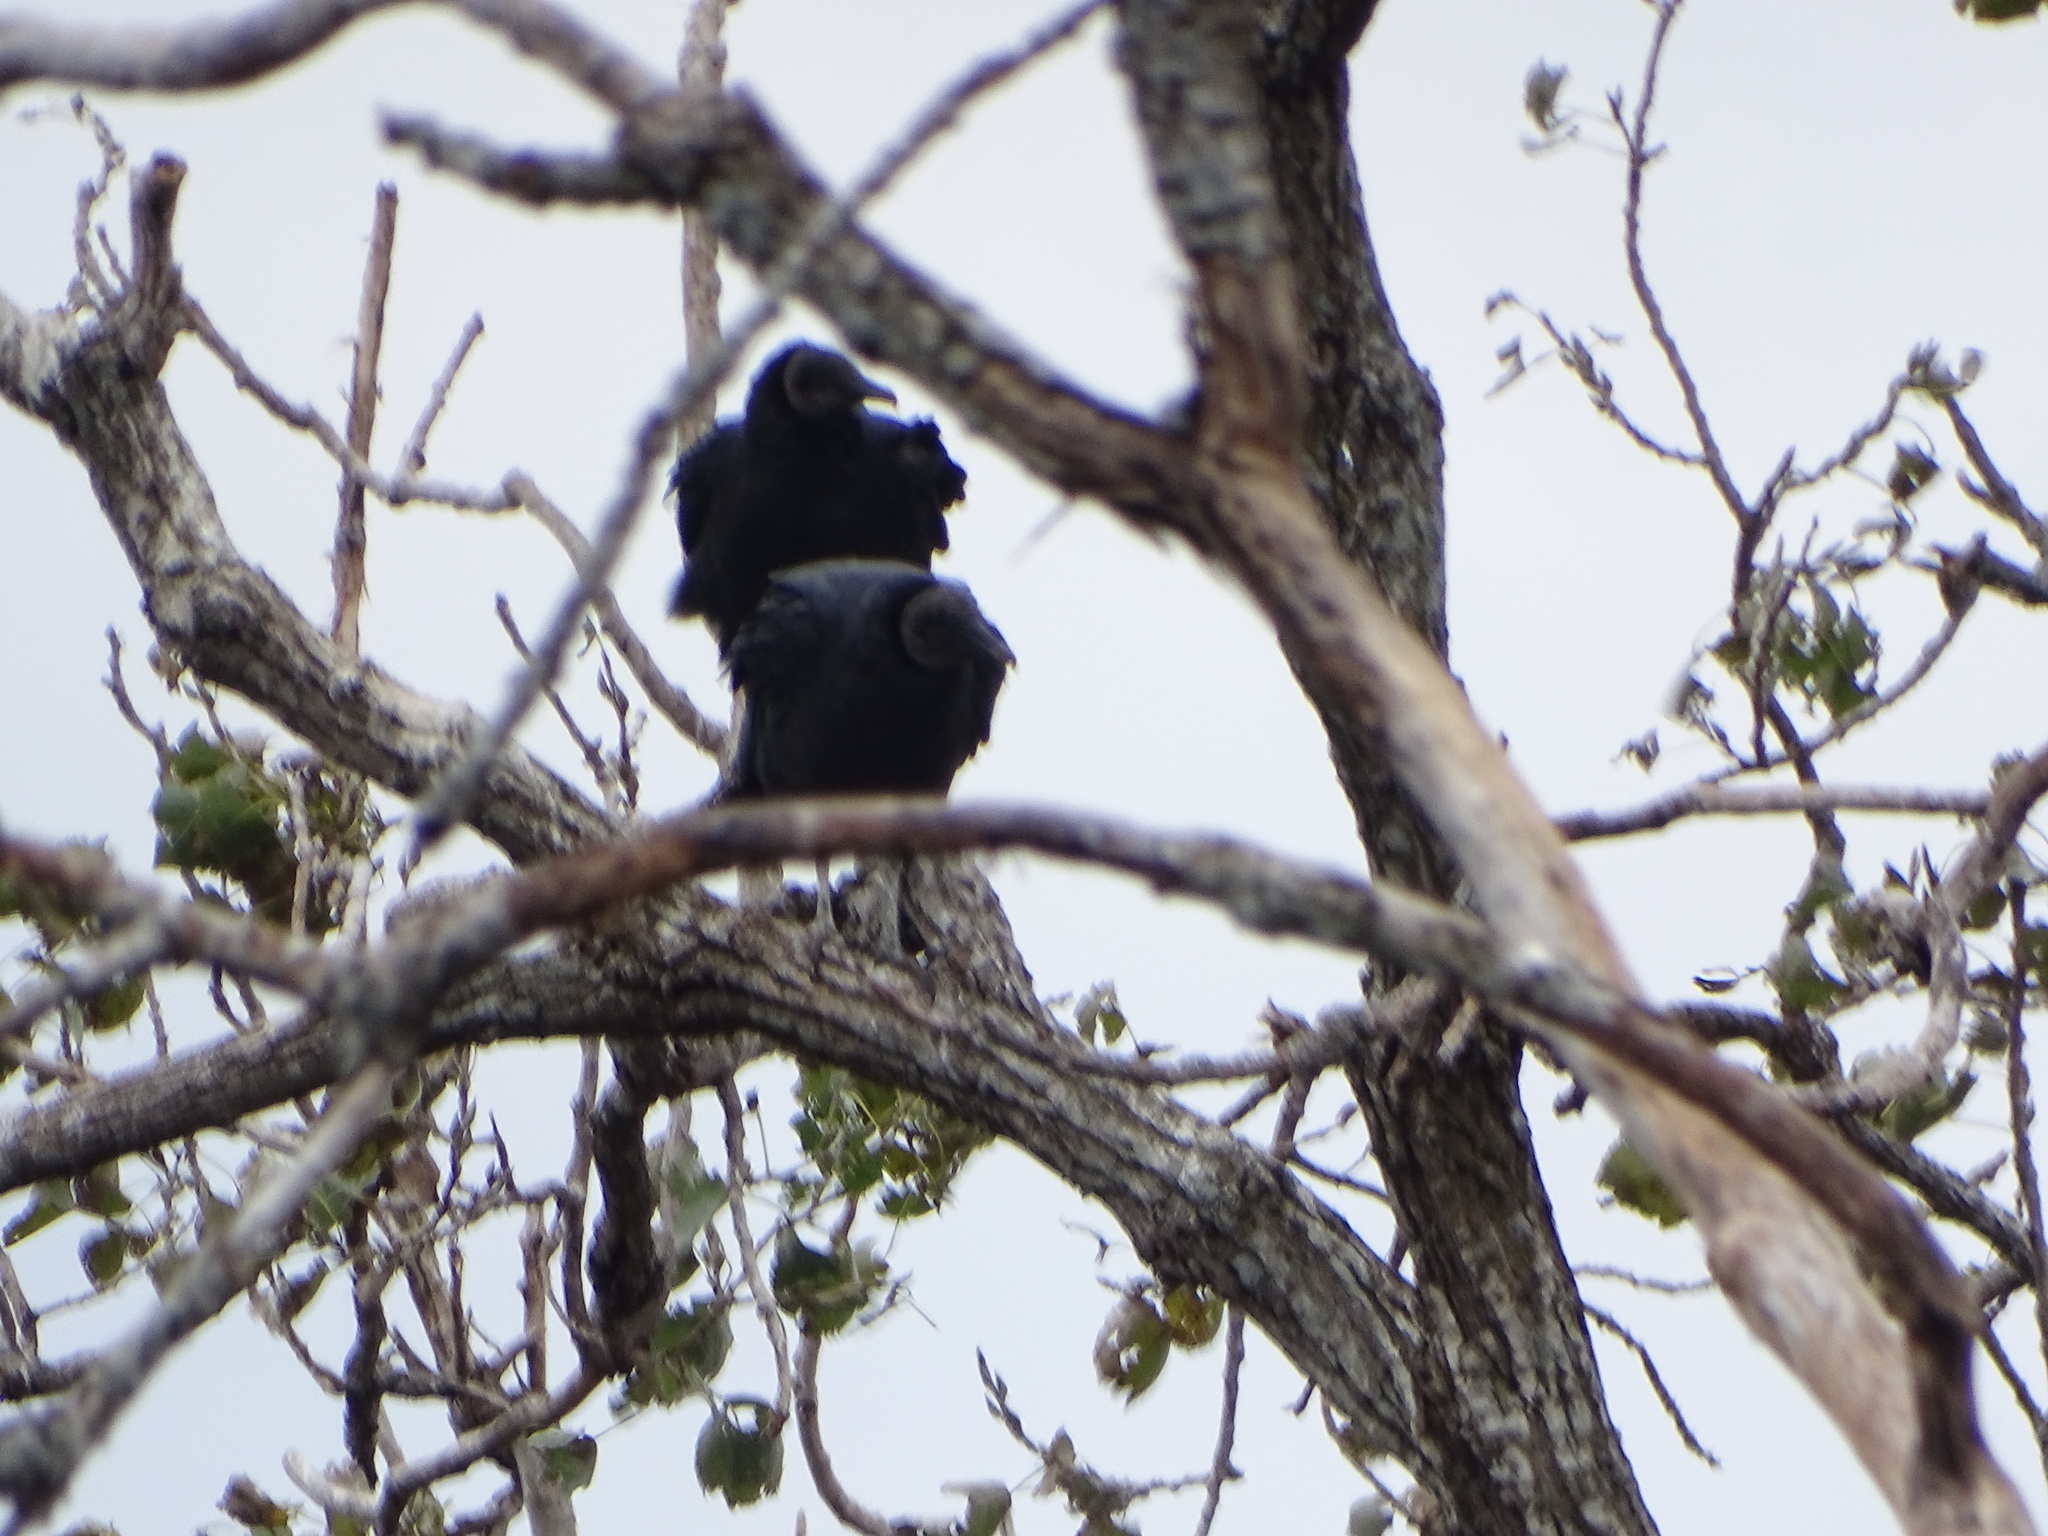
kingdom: Animalia
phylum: Chordata
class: Aves
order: Accipitriformes
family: Cathartidae
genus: Coragyps
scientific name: Coragyps atratus
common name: Black vulture
